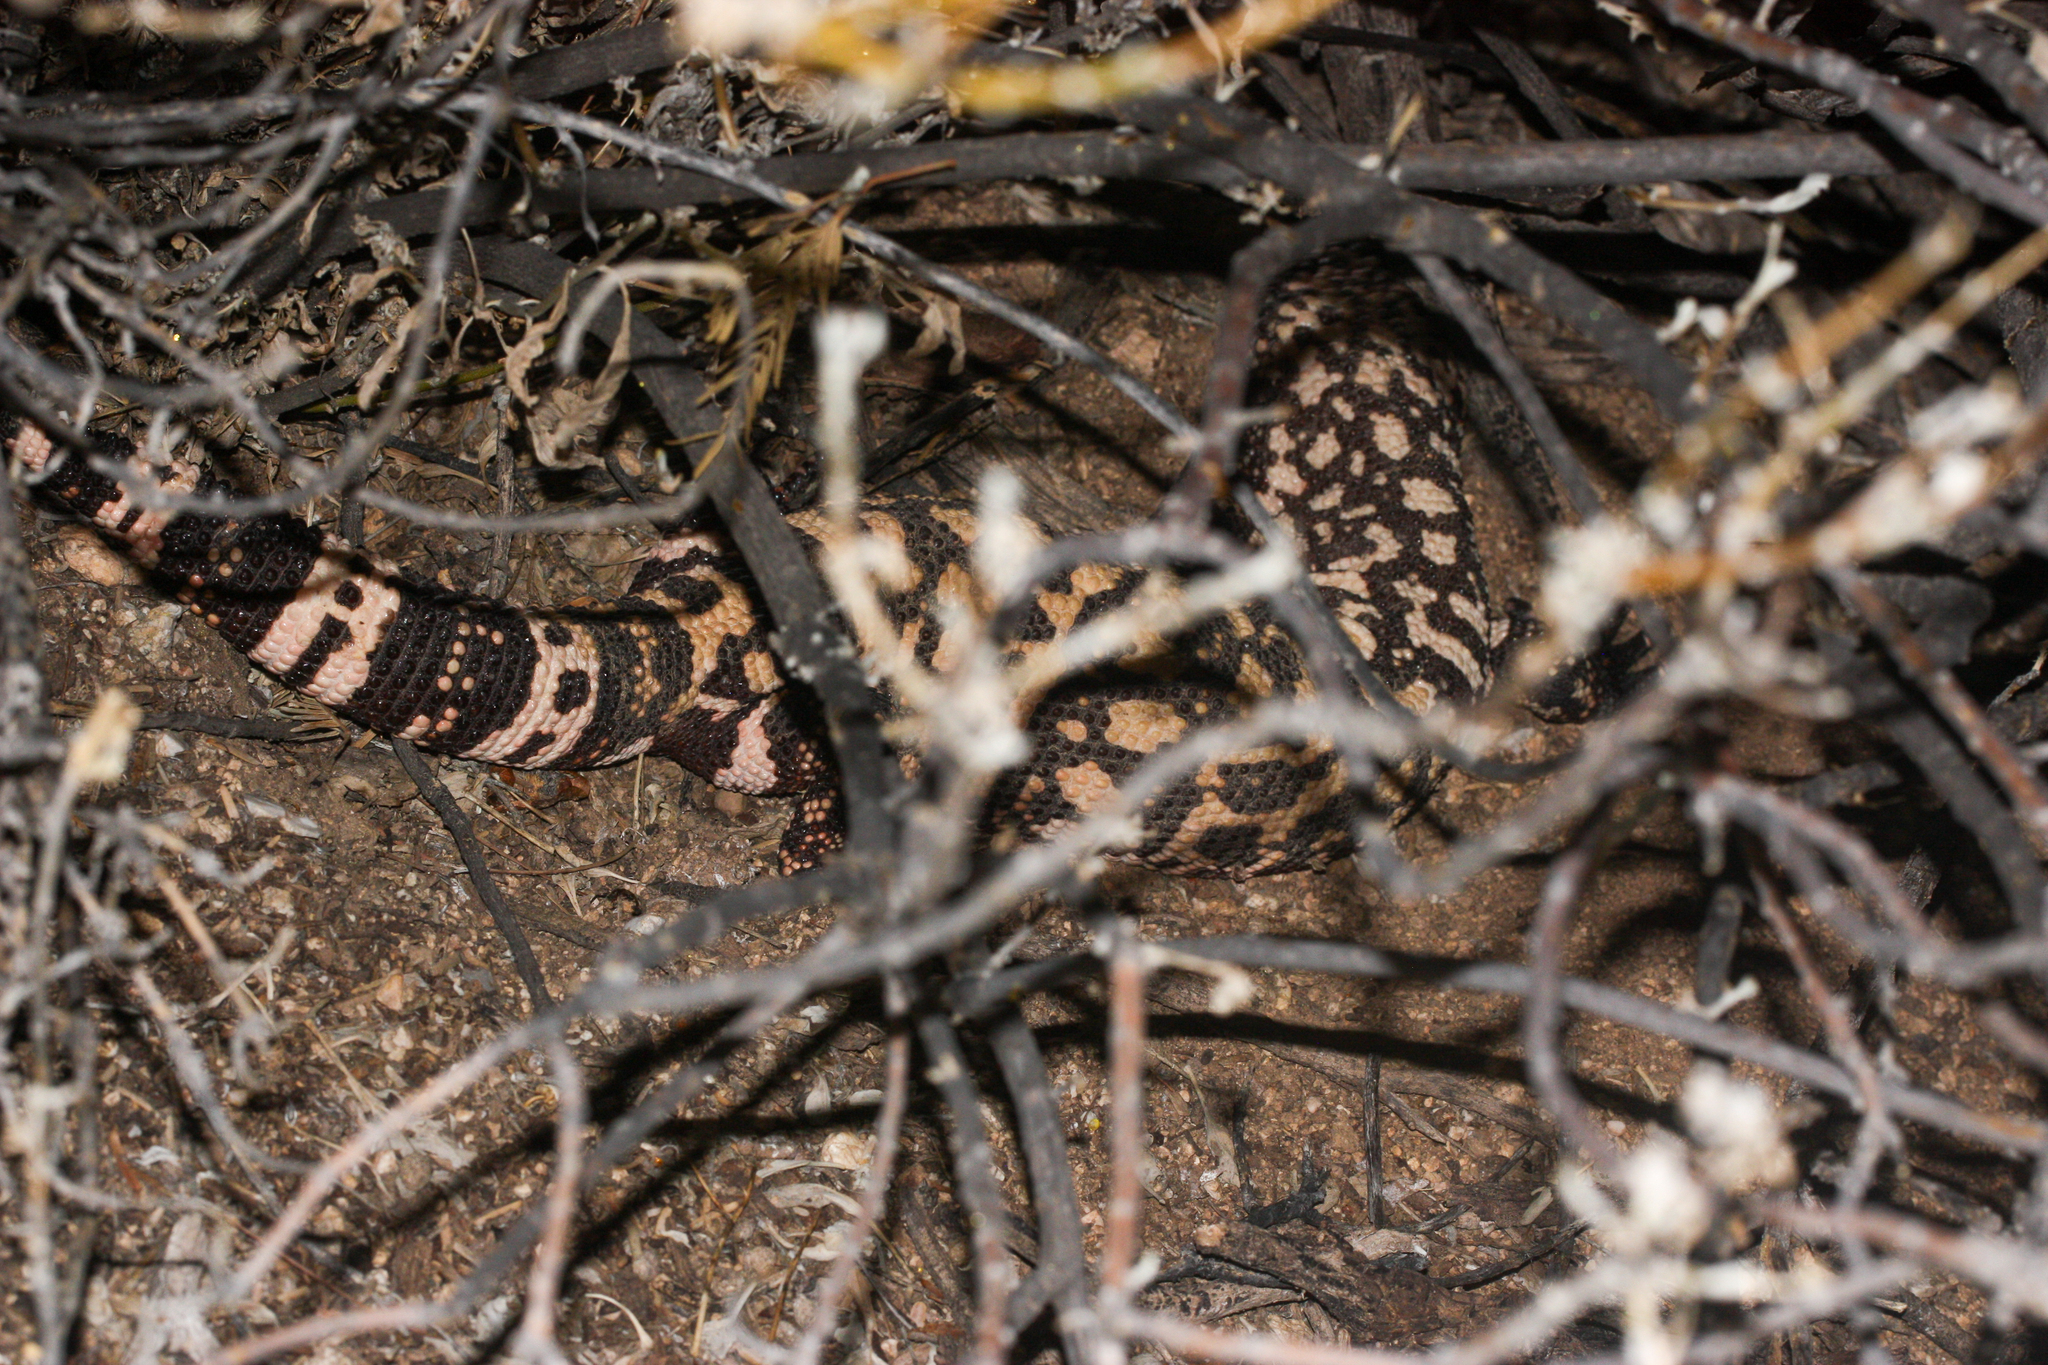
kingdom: Animalia
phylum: Chordata
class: Squamata
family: Helodermatidae
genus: Heloderma
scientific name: Heloderma suspectum
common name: Gila monster
